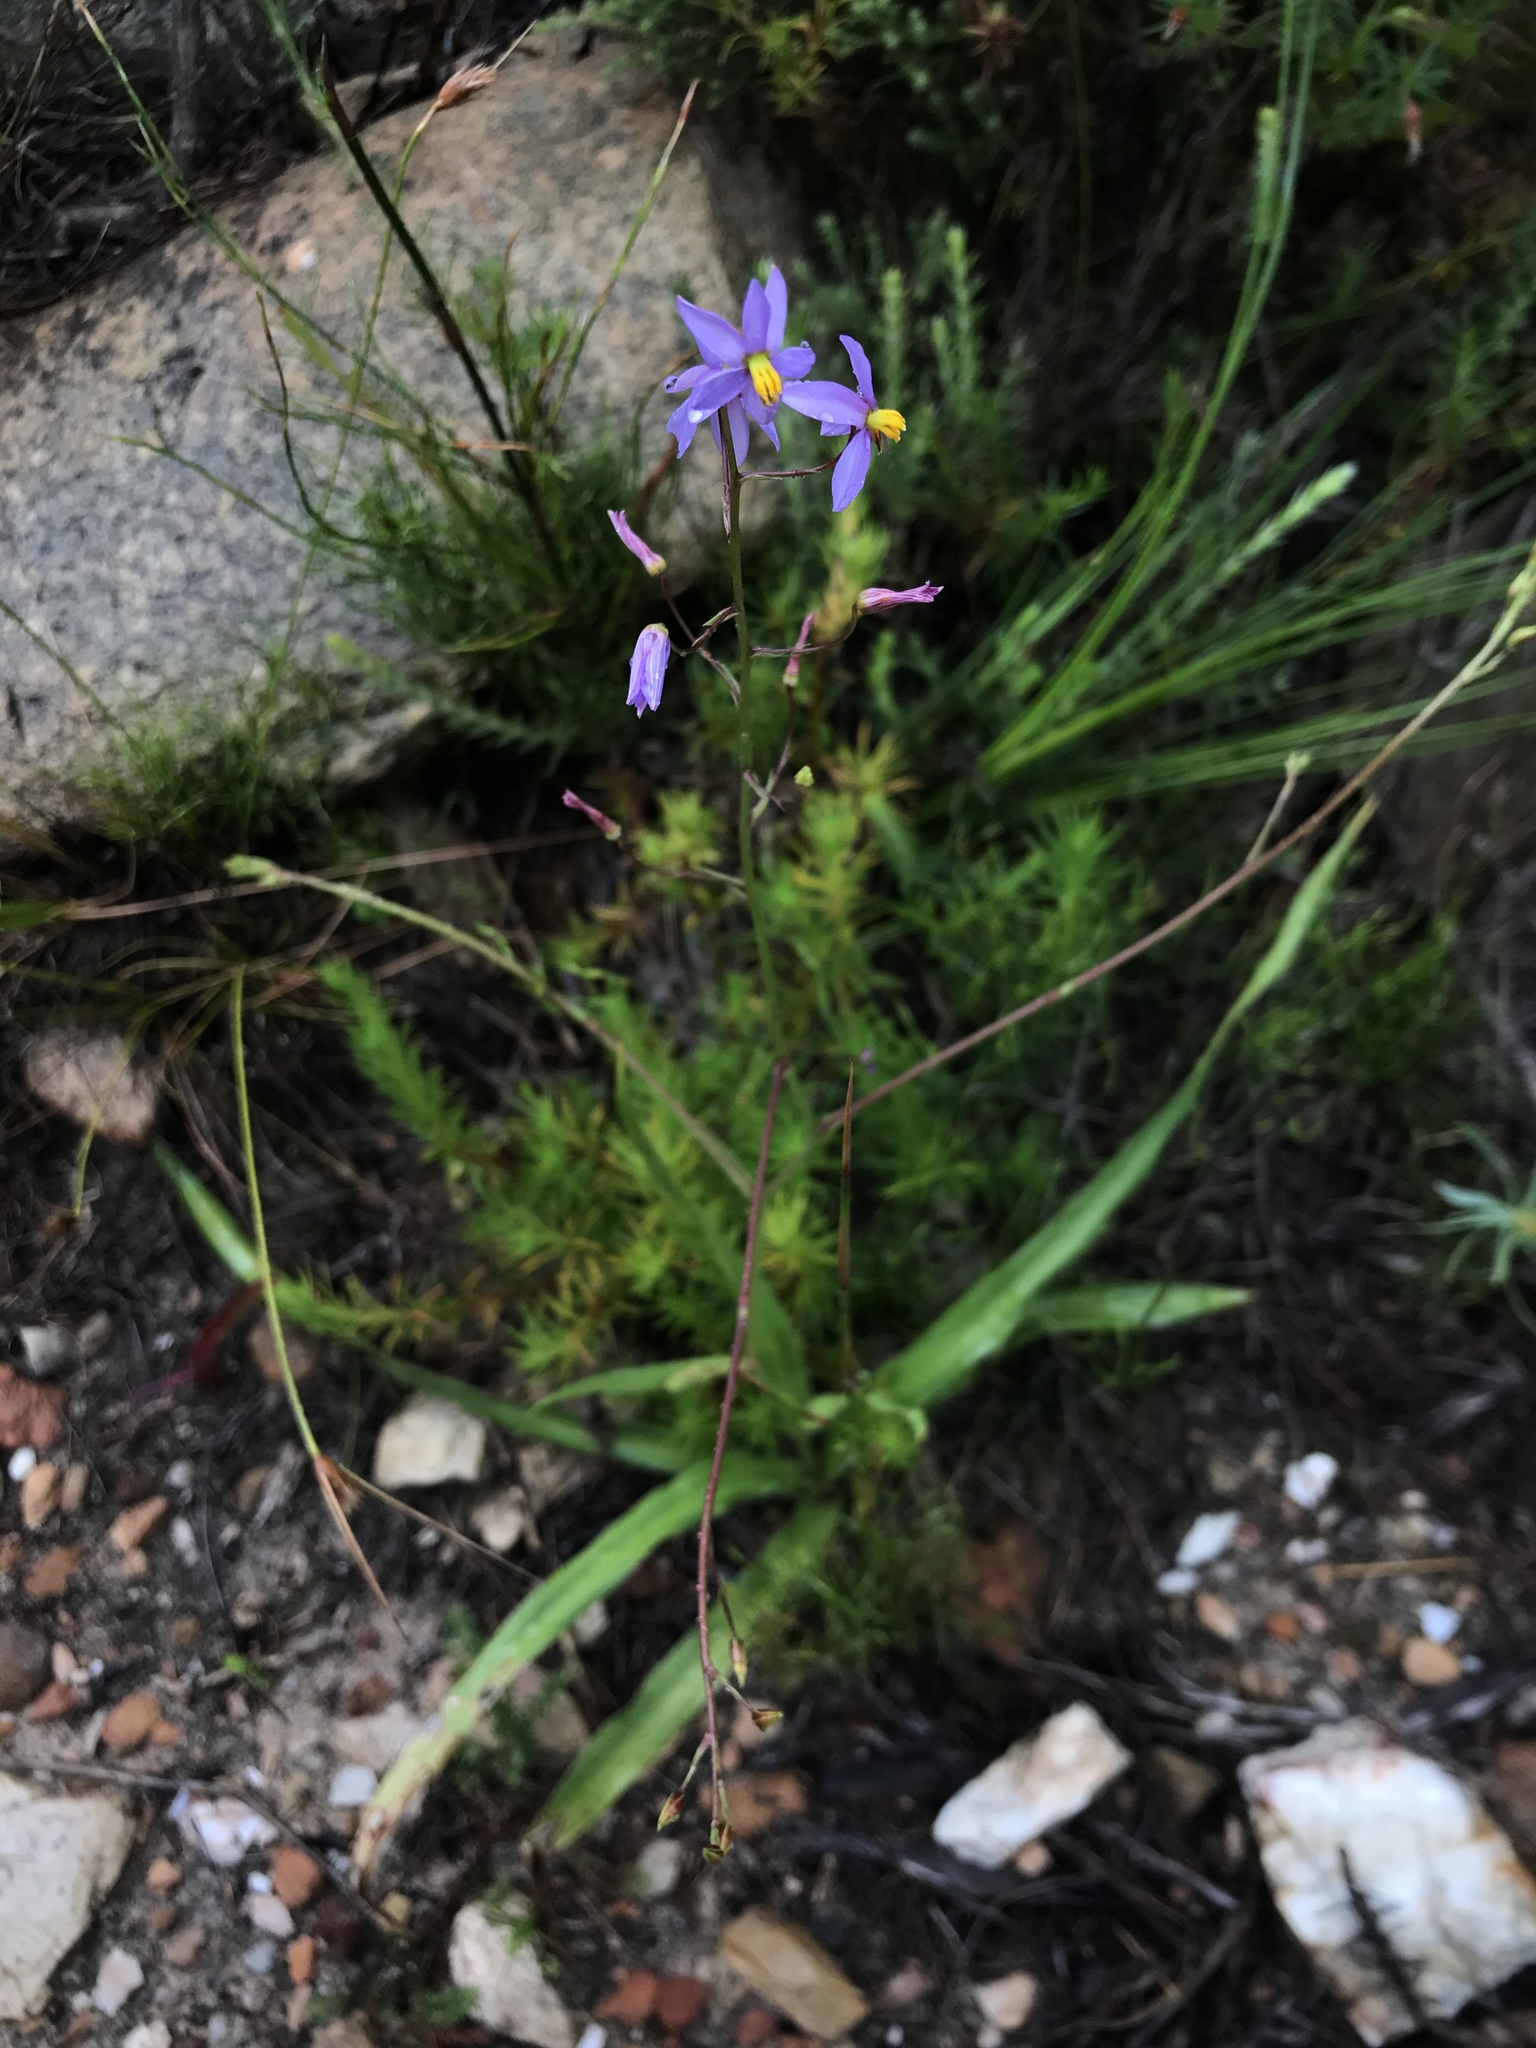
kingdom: Plantae
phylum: Tracheophyta
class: Liliopsida
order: Asparagales
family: Tecophilaeaceae
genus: Cyanella
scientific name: Cyanella hyacinthoides
